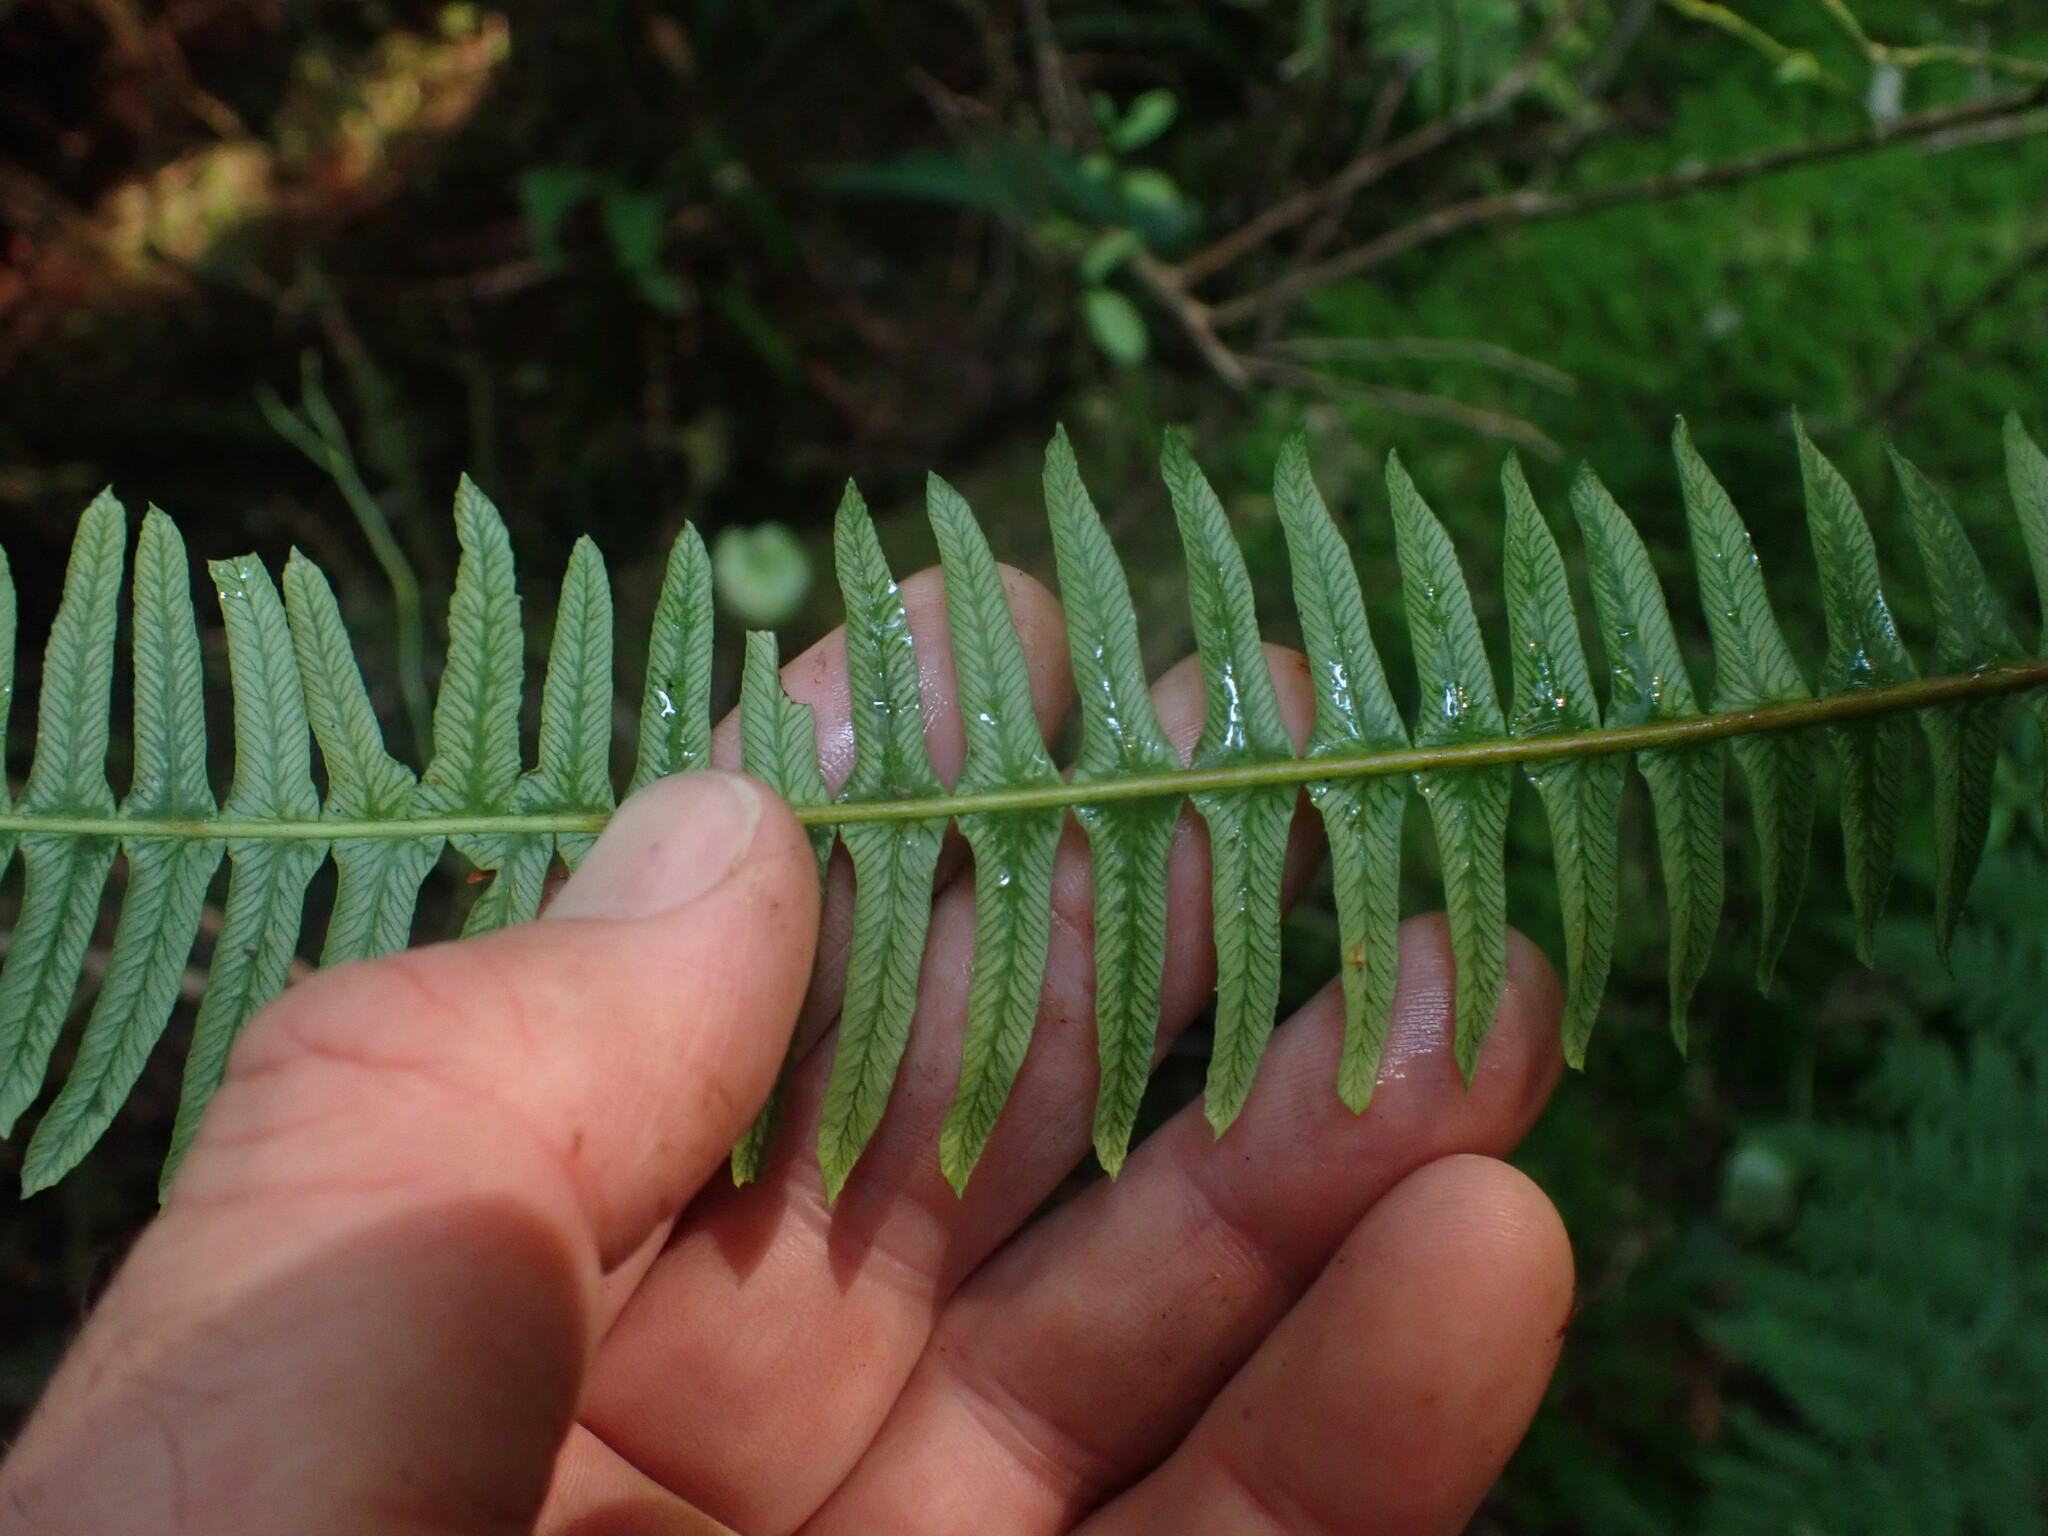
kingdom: Plantae
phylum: Tracheophyta
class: Polypodiopsida
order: Polypodiales
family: Blechnaceae
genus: Struthiopteris
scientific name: Struthiopteris spicant
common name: Deer fern
